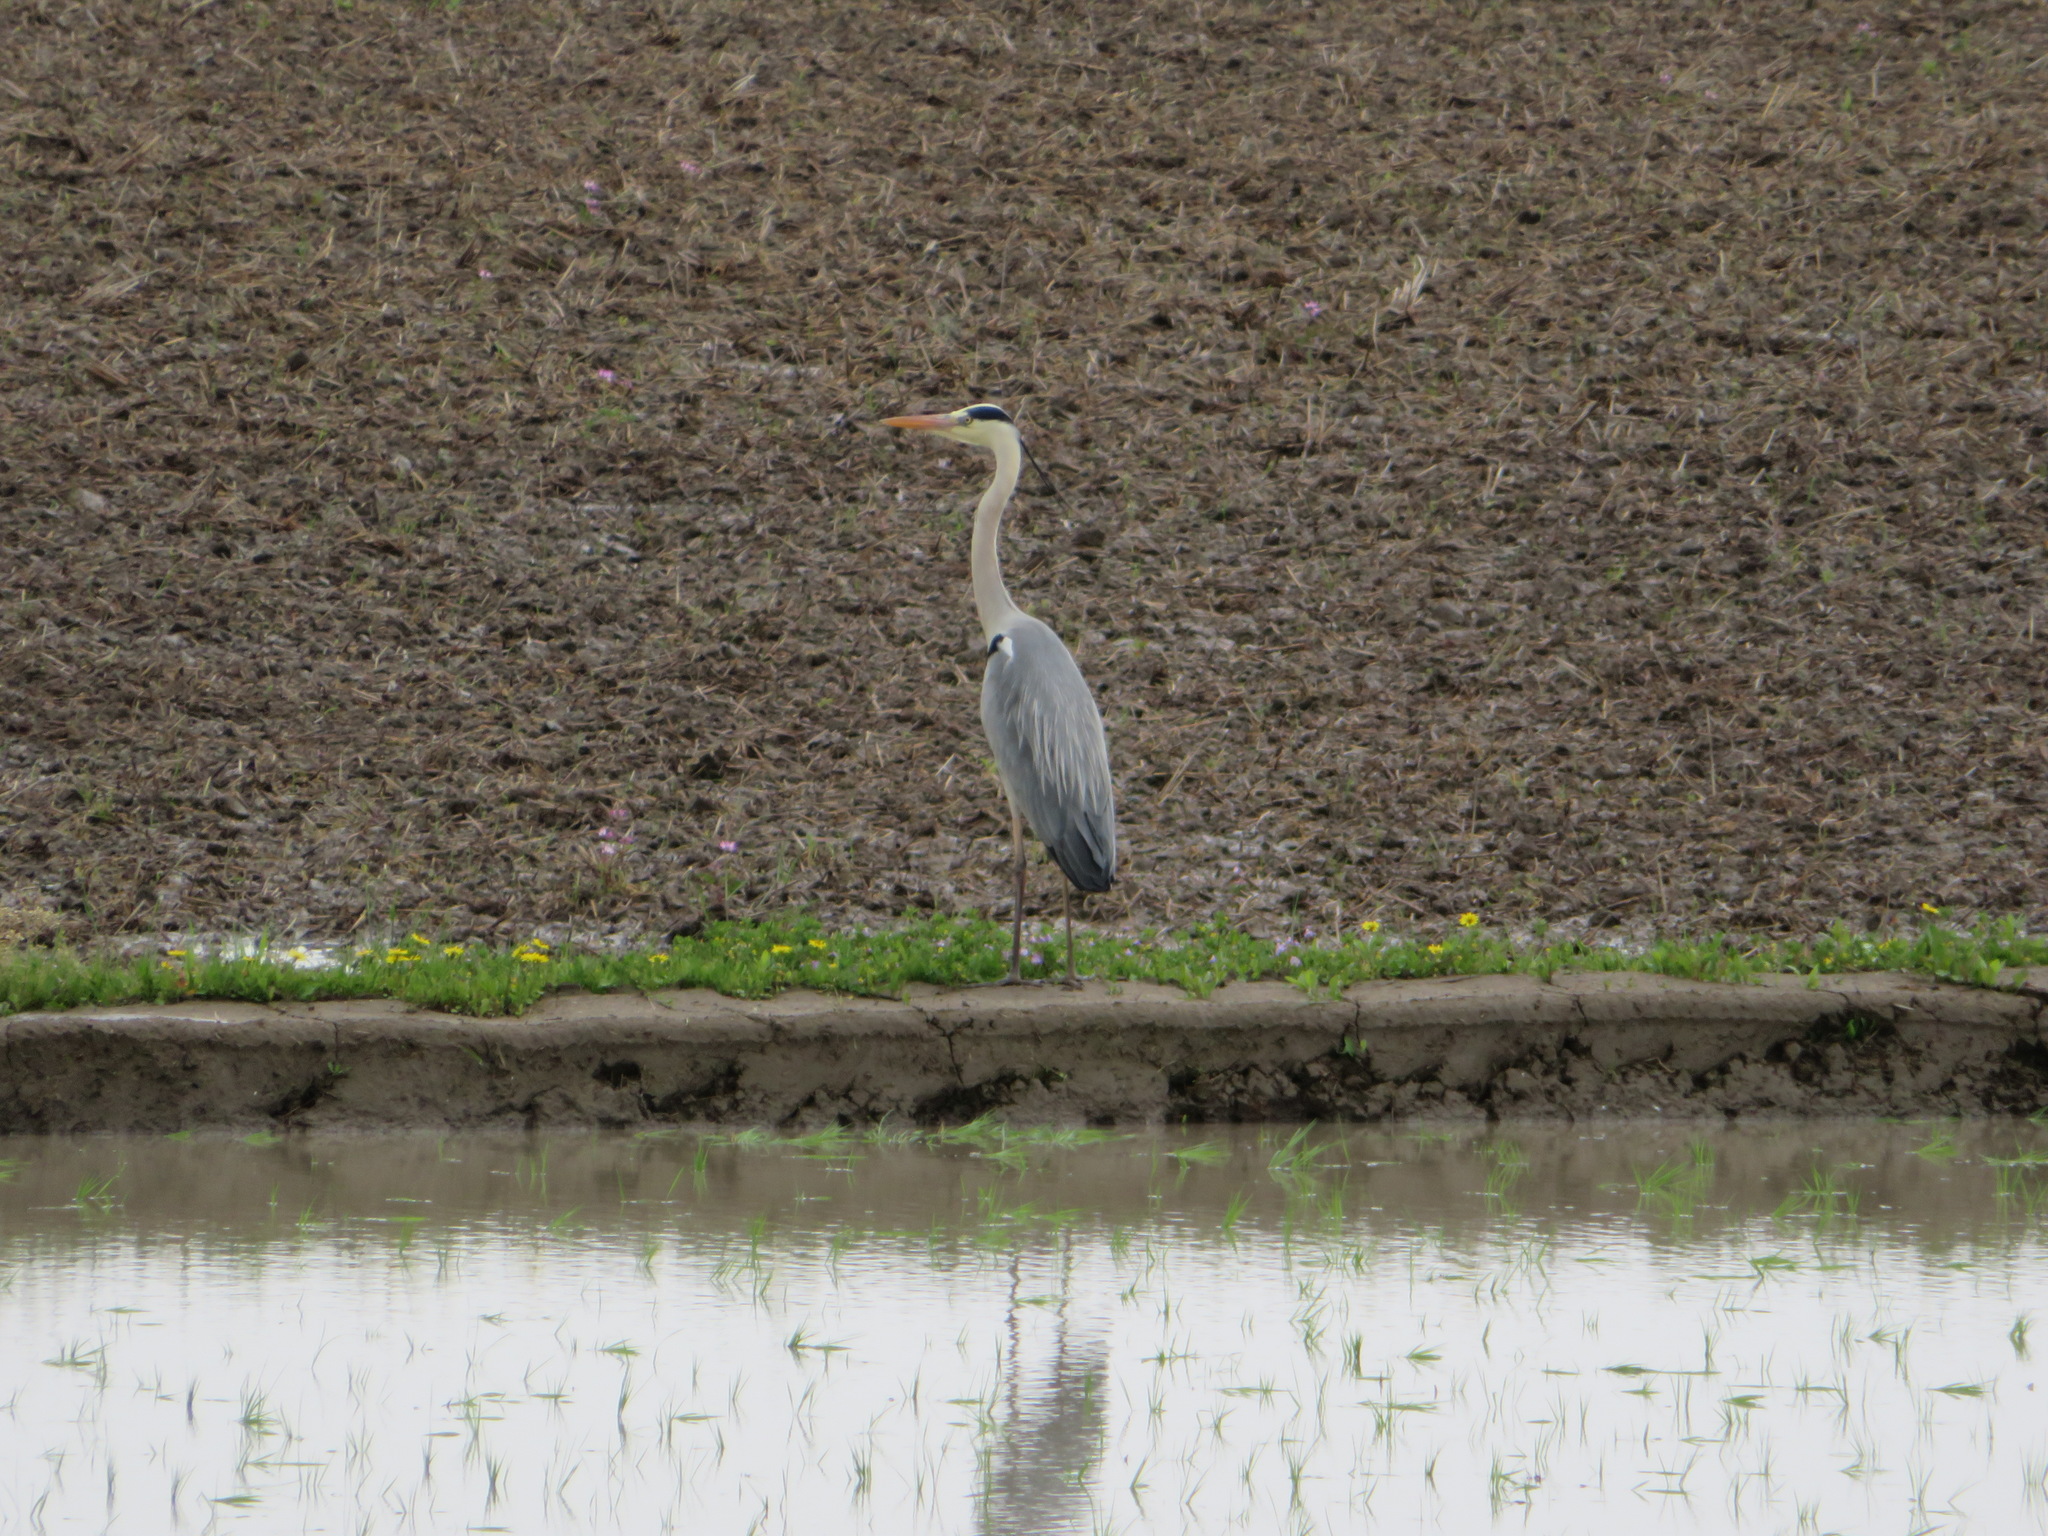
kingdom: Animalia
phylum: Chordata
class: Aves
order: Pelecaniformes
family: Ardeidae
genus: Ardea
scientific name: Ardea cinerea
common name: Grey heron
